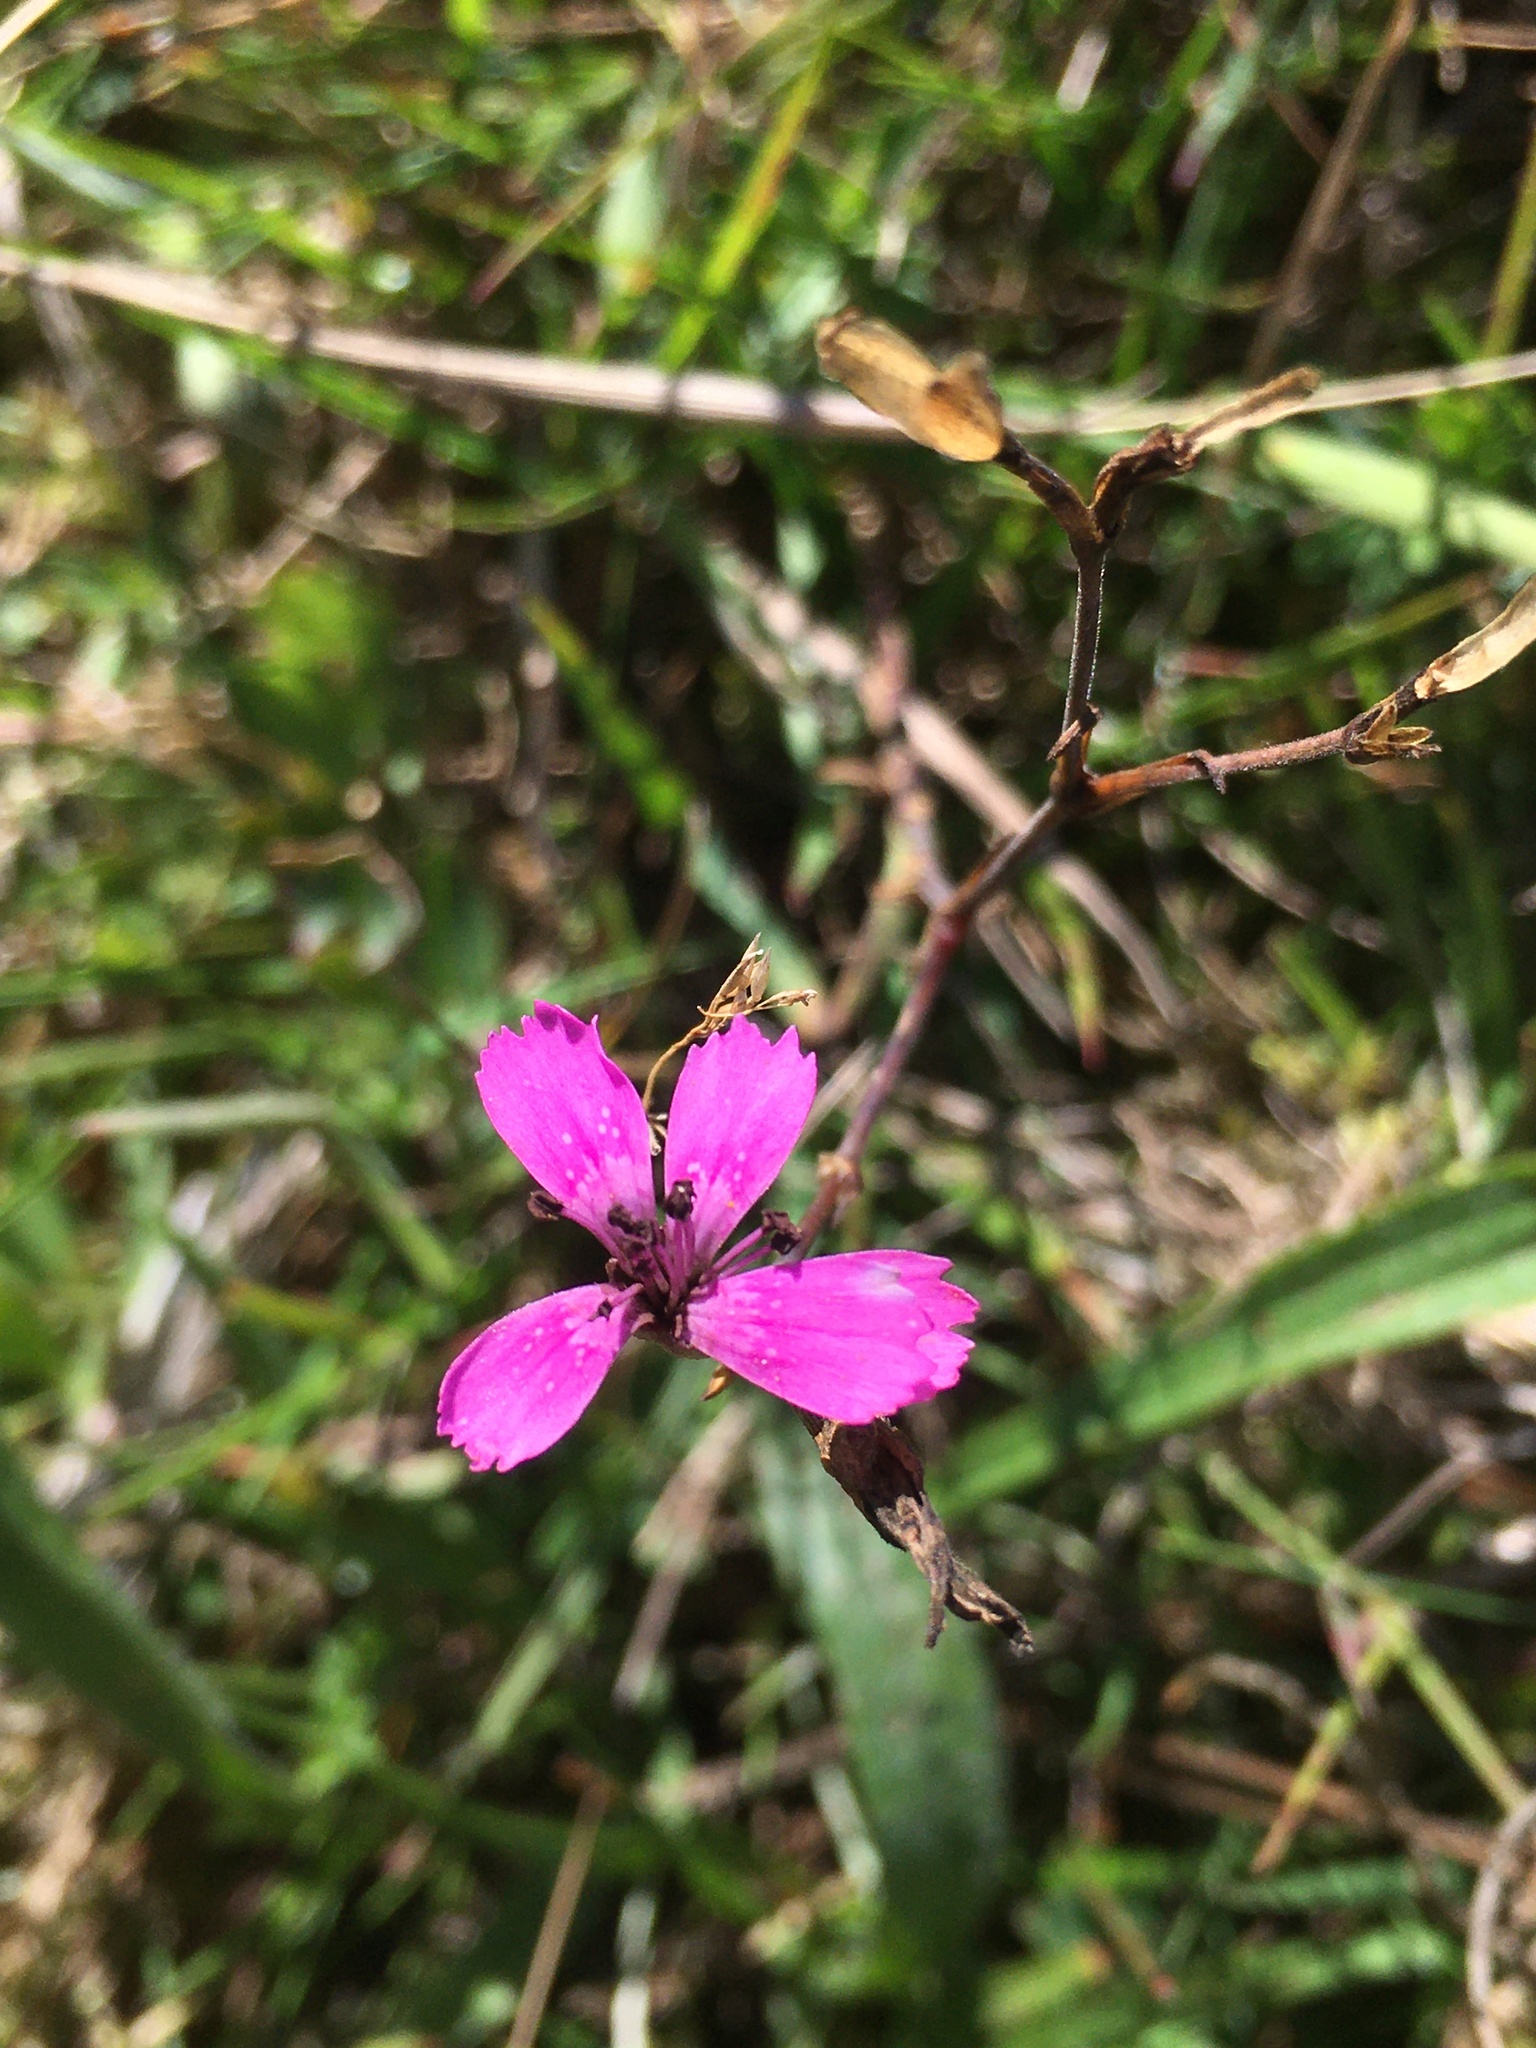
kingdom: Plantae
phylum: Tracheophyta
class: Magnoliopsida
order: Caryophyllales
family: Caryophyllaceae
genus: Dianthus
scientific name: Dianthus deltoides
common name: Maiden pink
